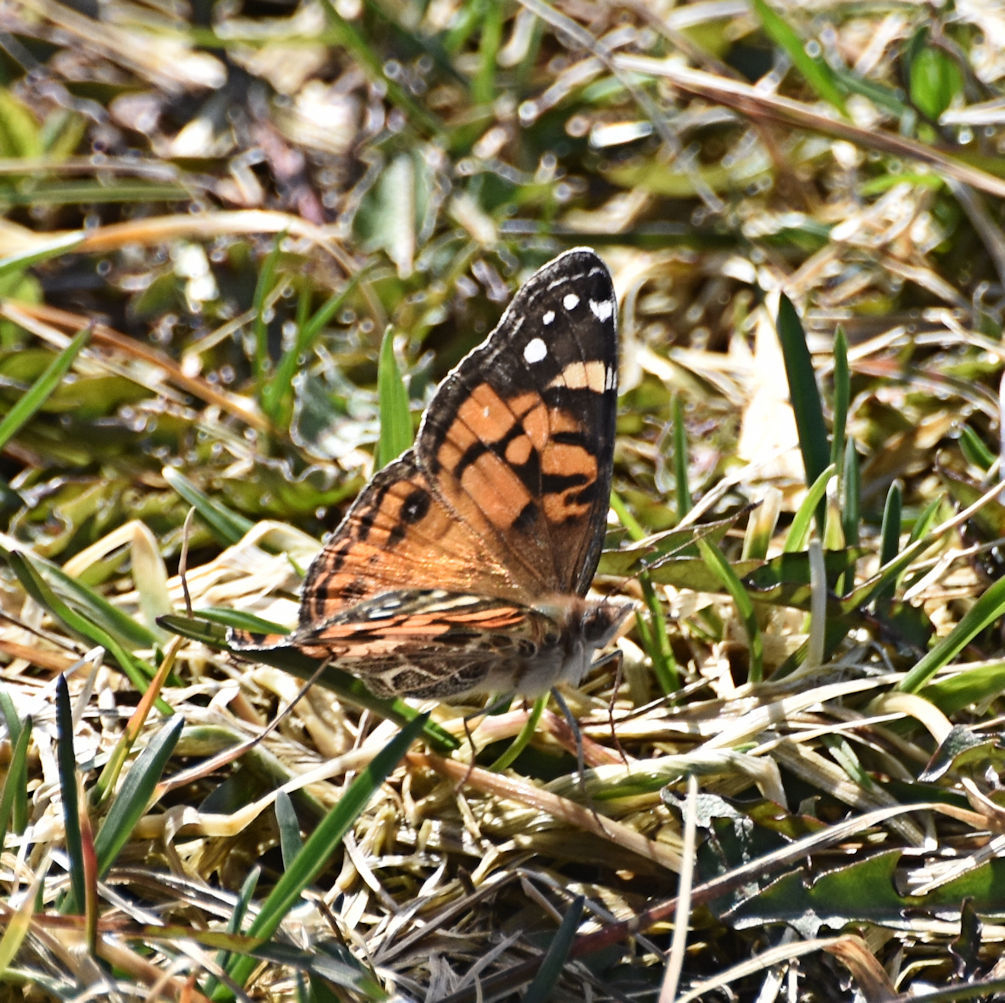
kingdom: Animalia
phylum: Arthropoda
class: Insecta
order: Lepidoptera
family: Nymphalidae
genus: Vanessa
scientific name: Vanessa virginiensis
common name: American lady
